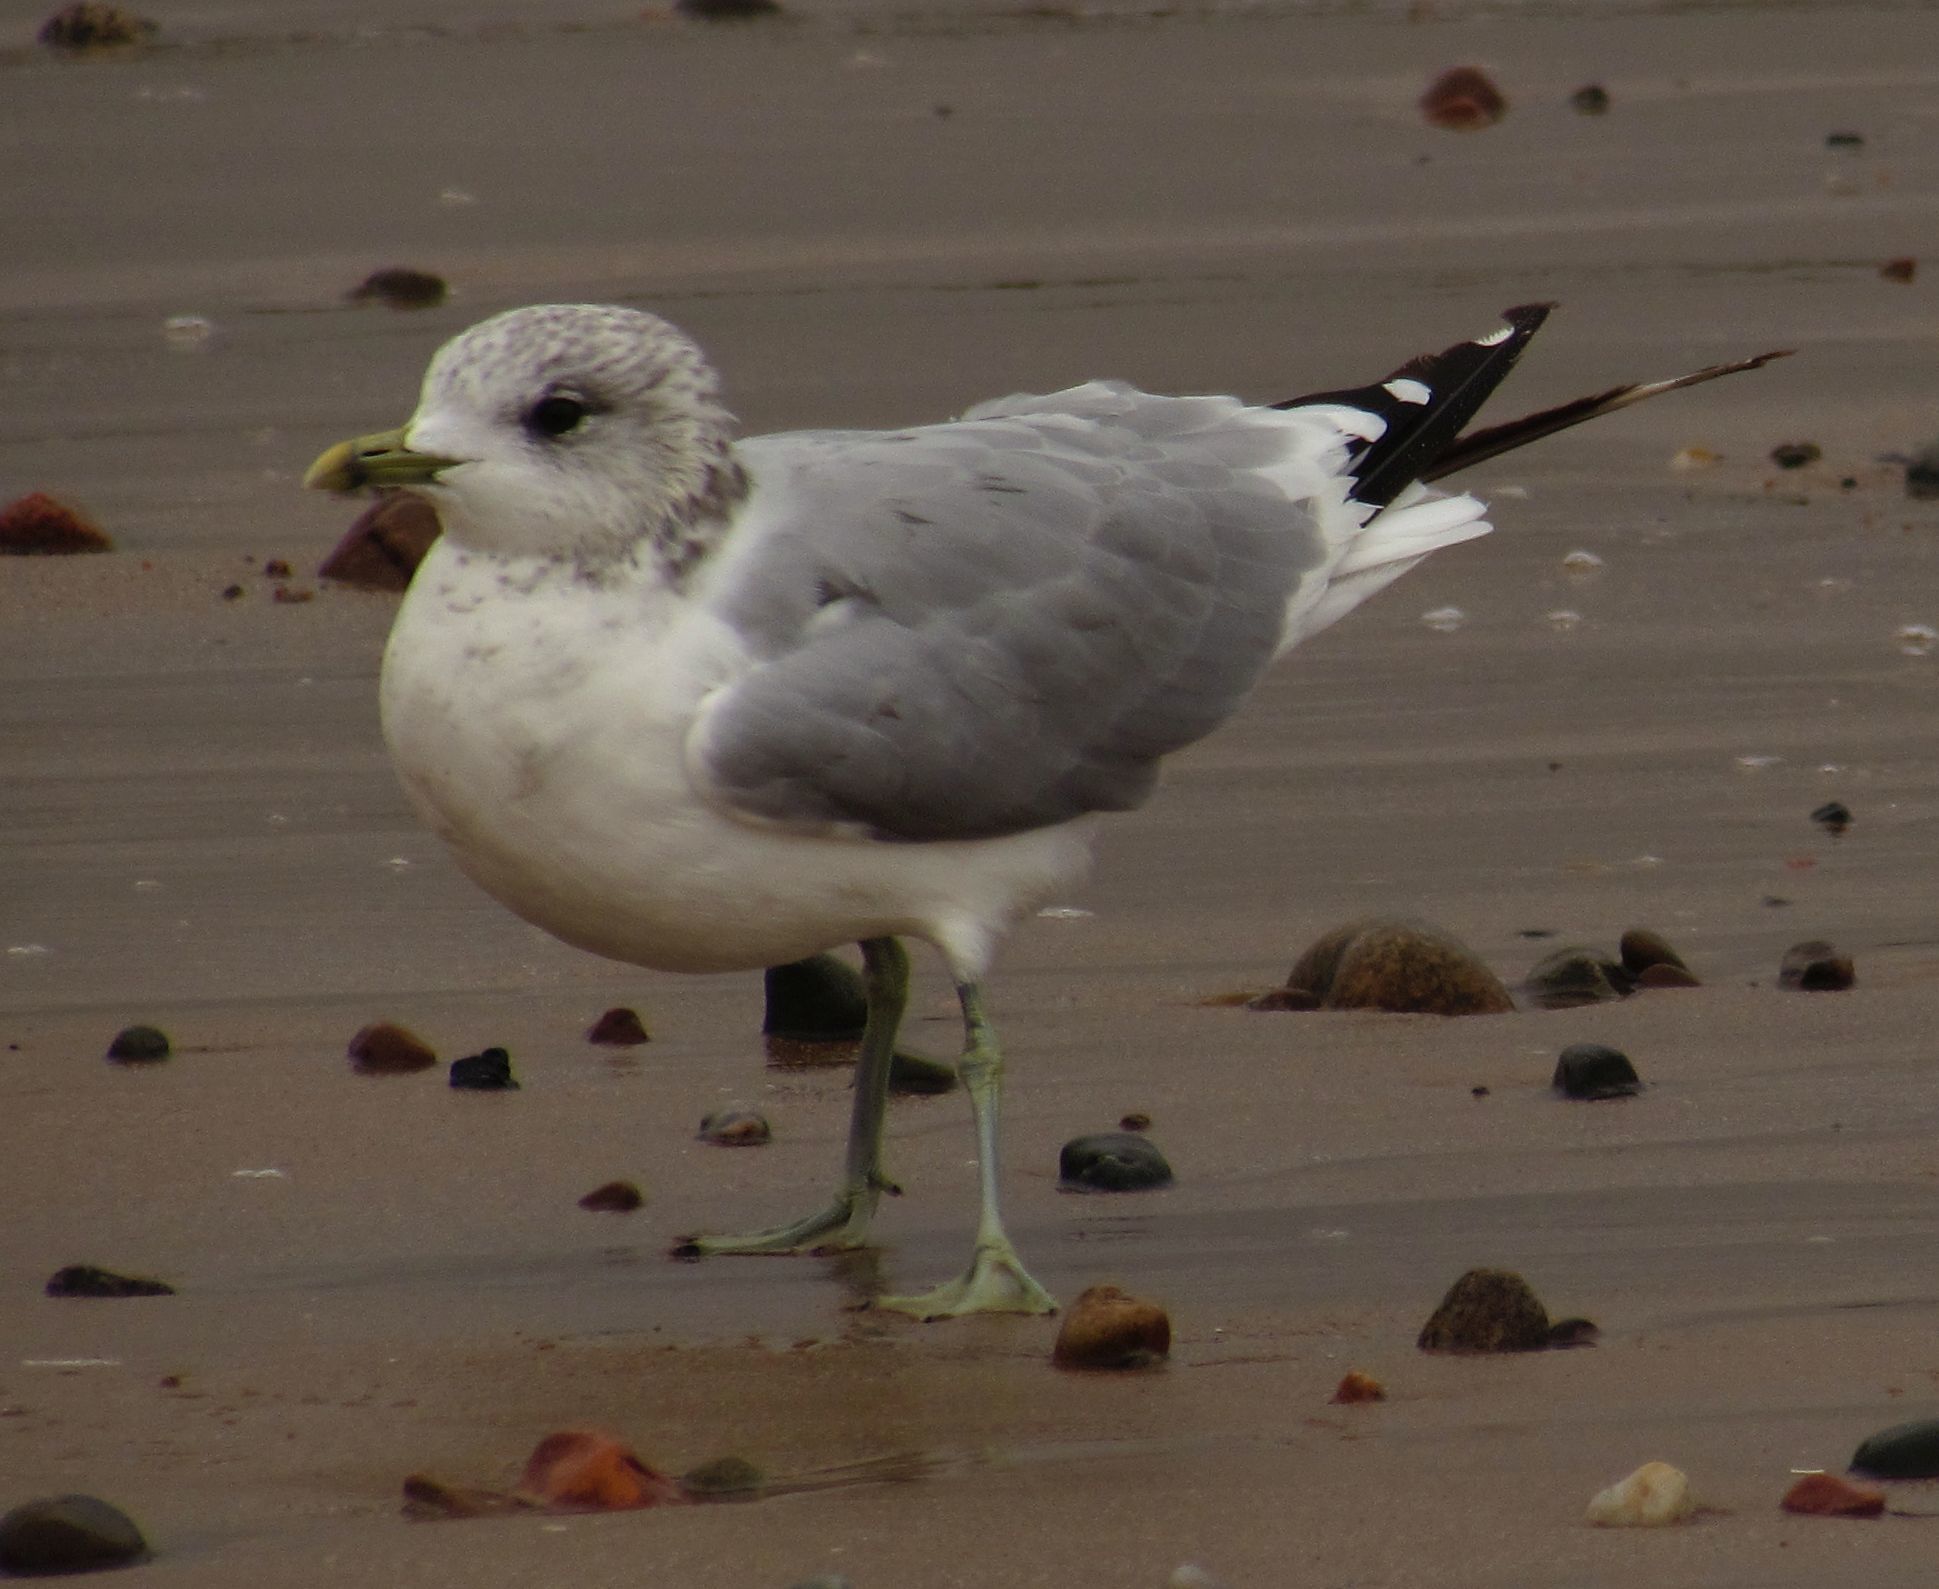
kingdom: Animalia
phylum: Chordata
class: Aves
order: Charadriiformes
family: Laridae
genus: Larus
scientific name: Larus canus
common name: Mew gull
